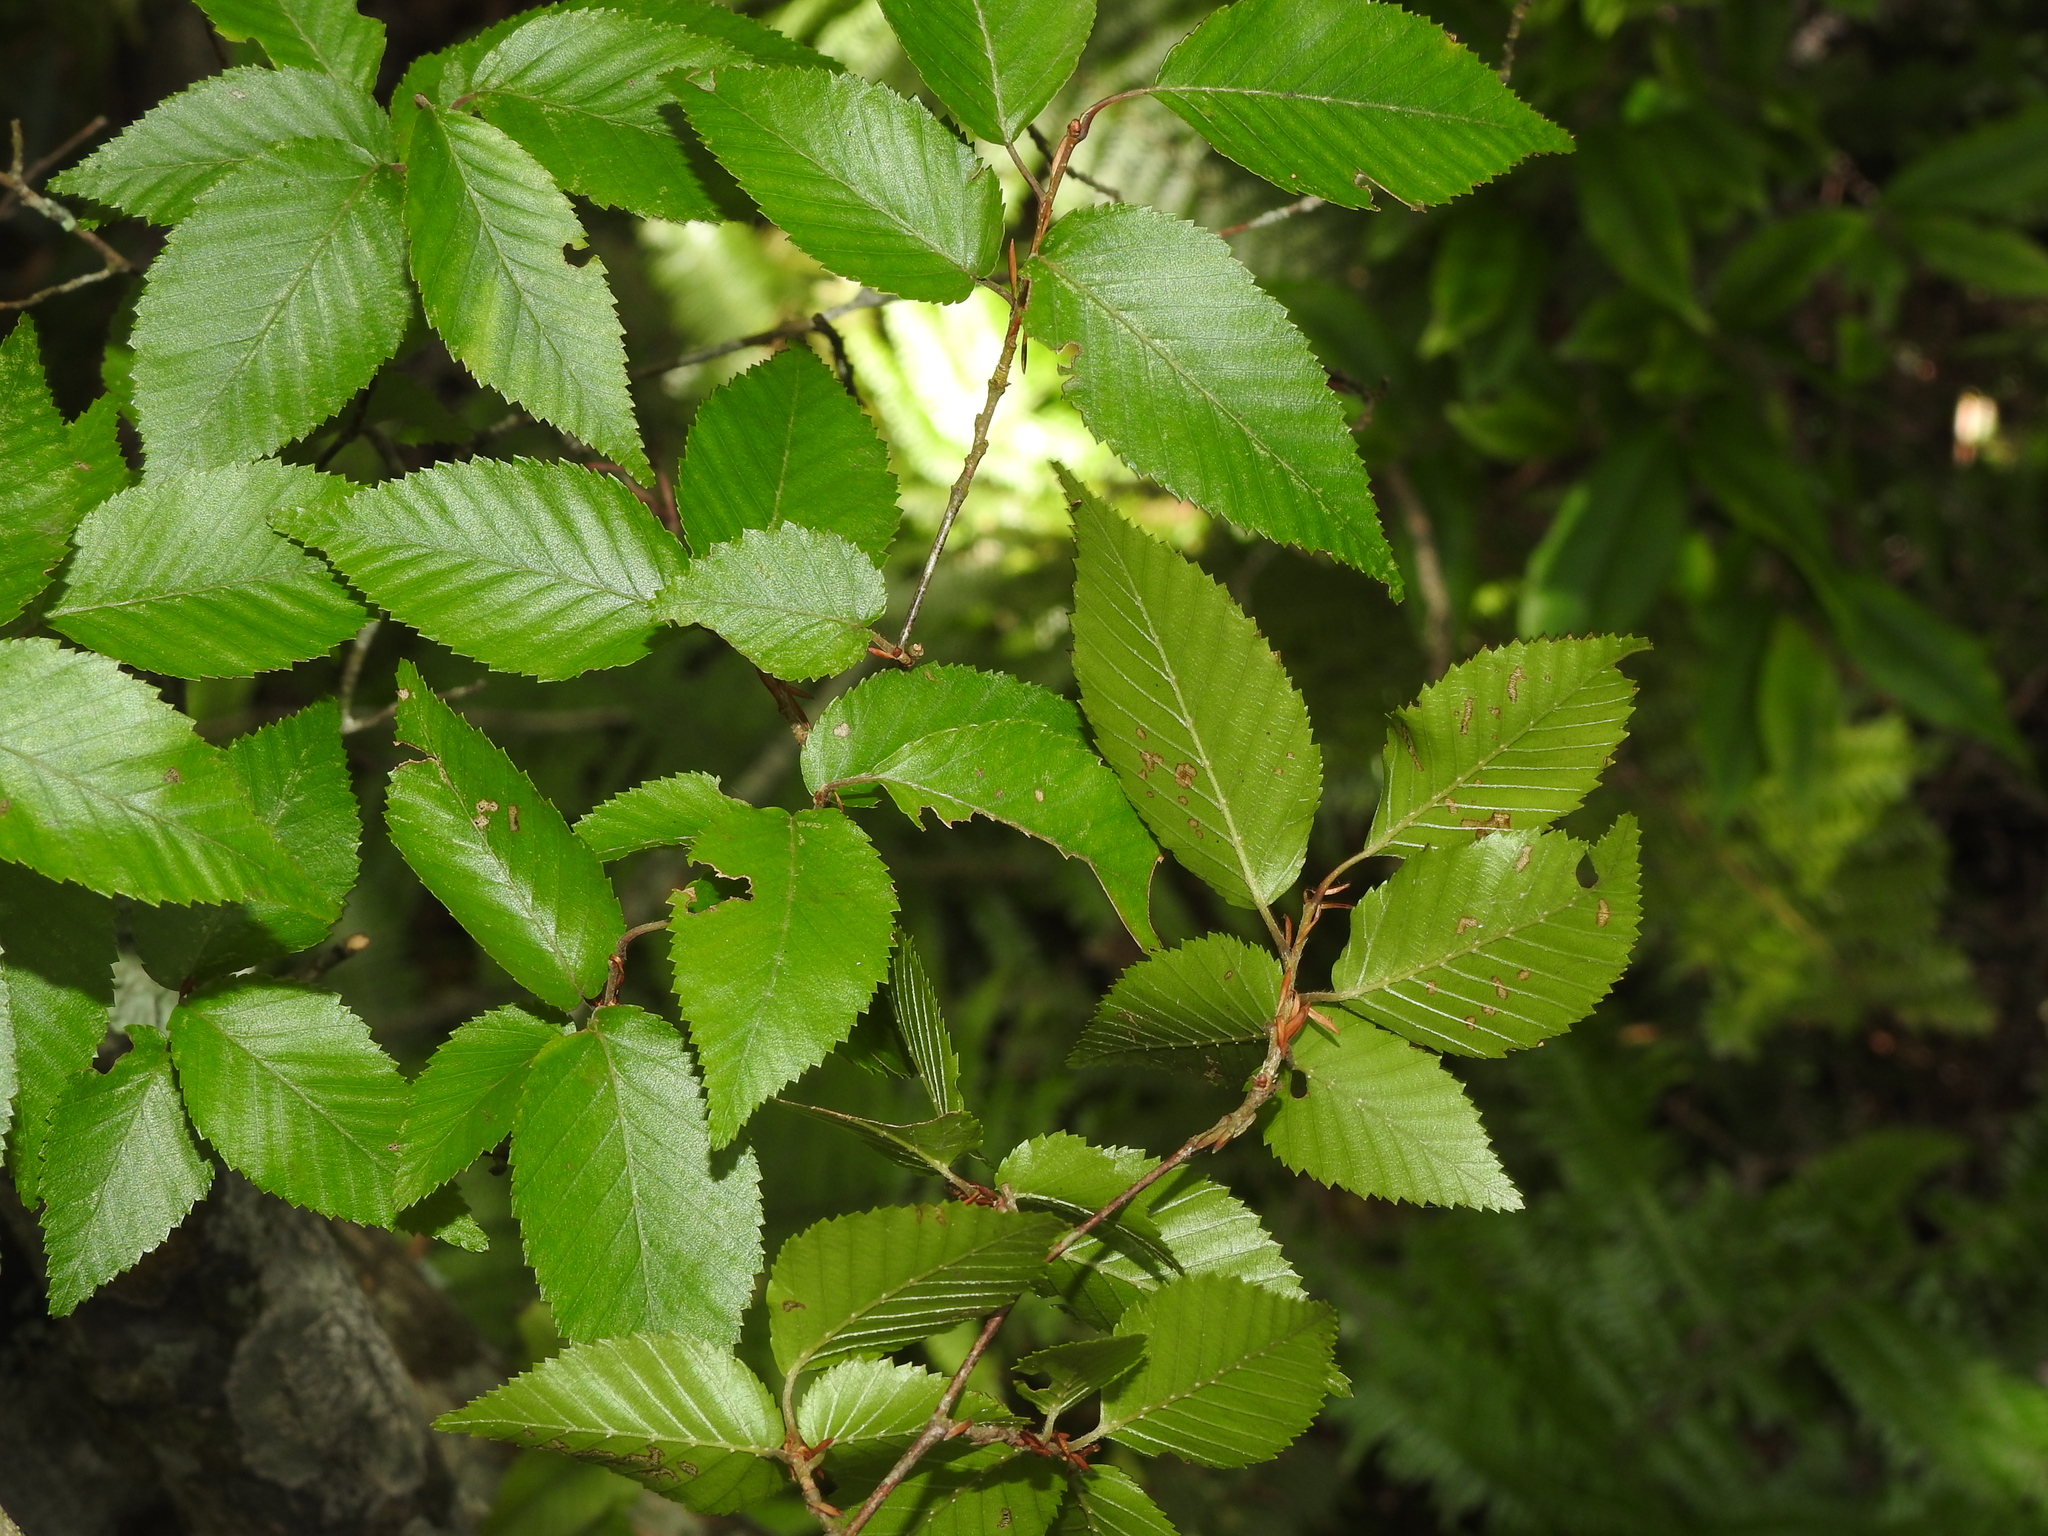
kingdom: Plantae
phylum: Tracheophyta
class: Magnoliopsida
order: Fagales
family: Betulaceae
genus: Carpinus
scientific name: Carpinus kawakamii
